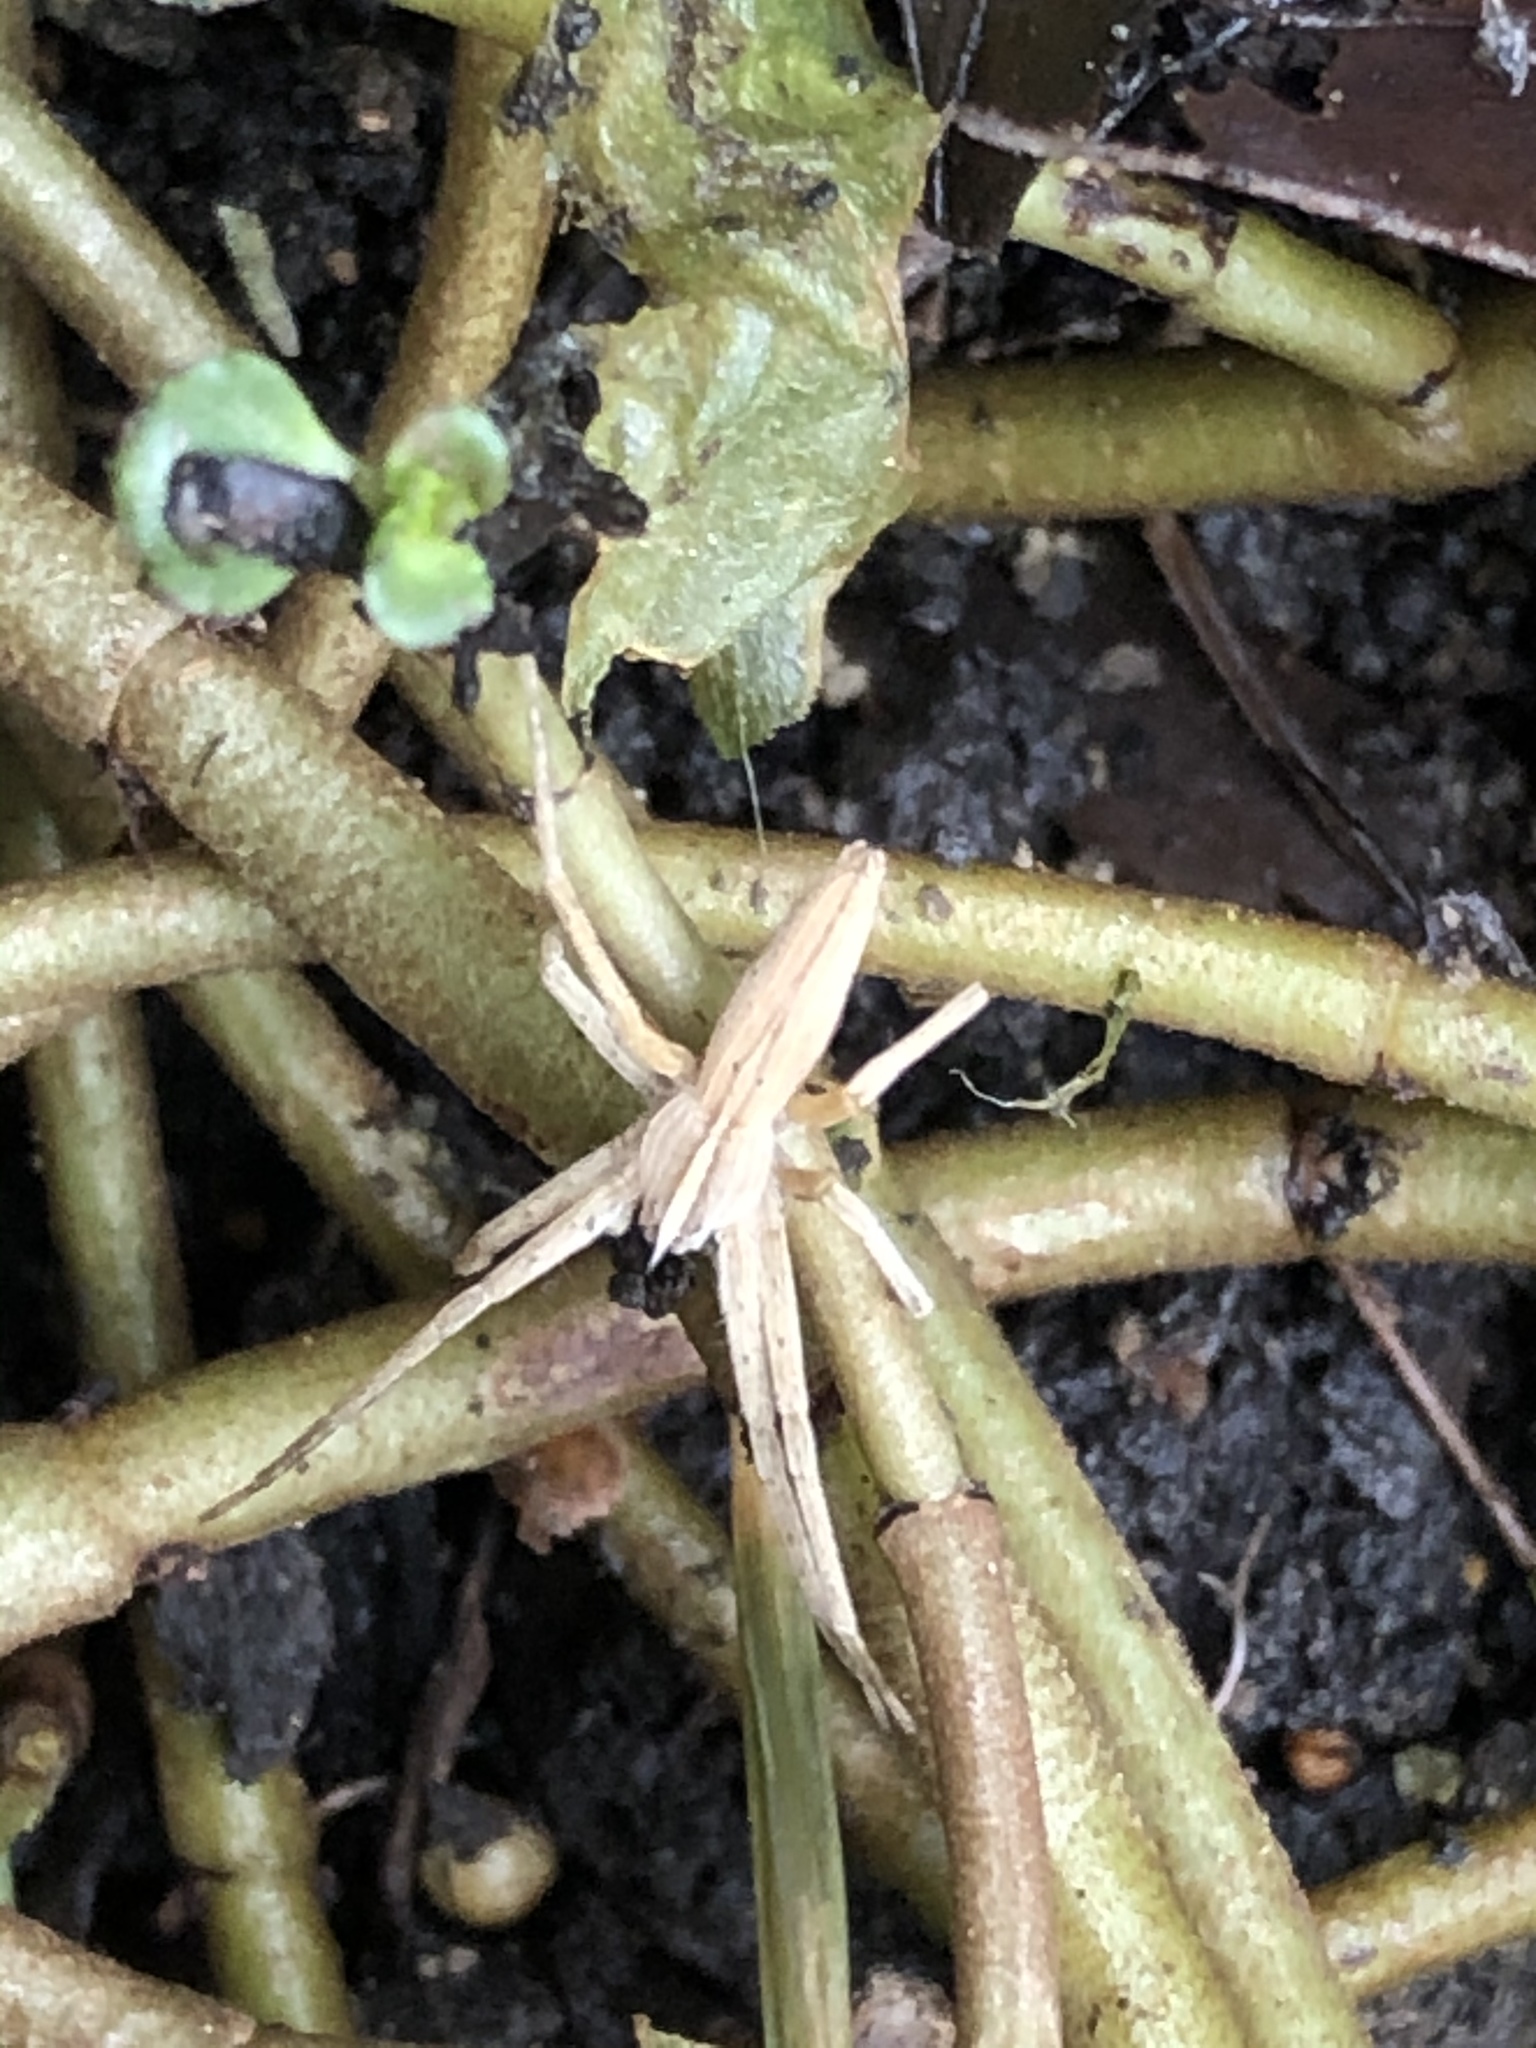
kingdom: Animalia
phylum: Arthropoda
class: Arachnida
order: Araneae
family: Pisauridae
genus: Pisaurina
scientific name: Pisaurina dubia
